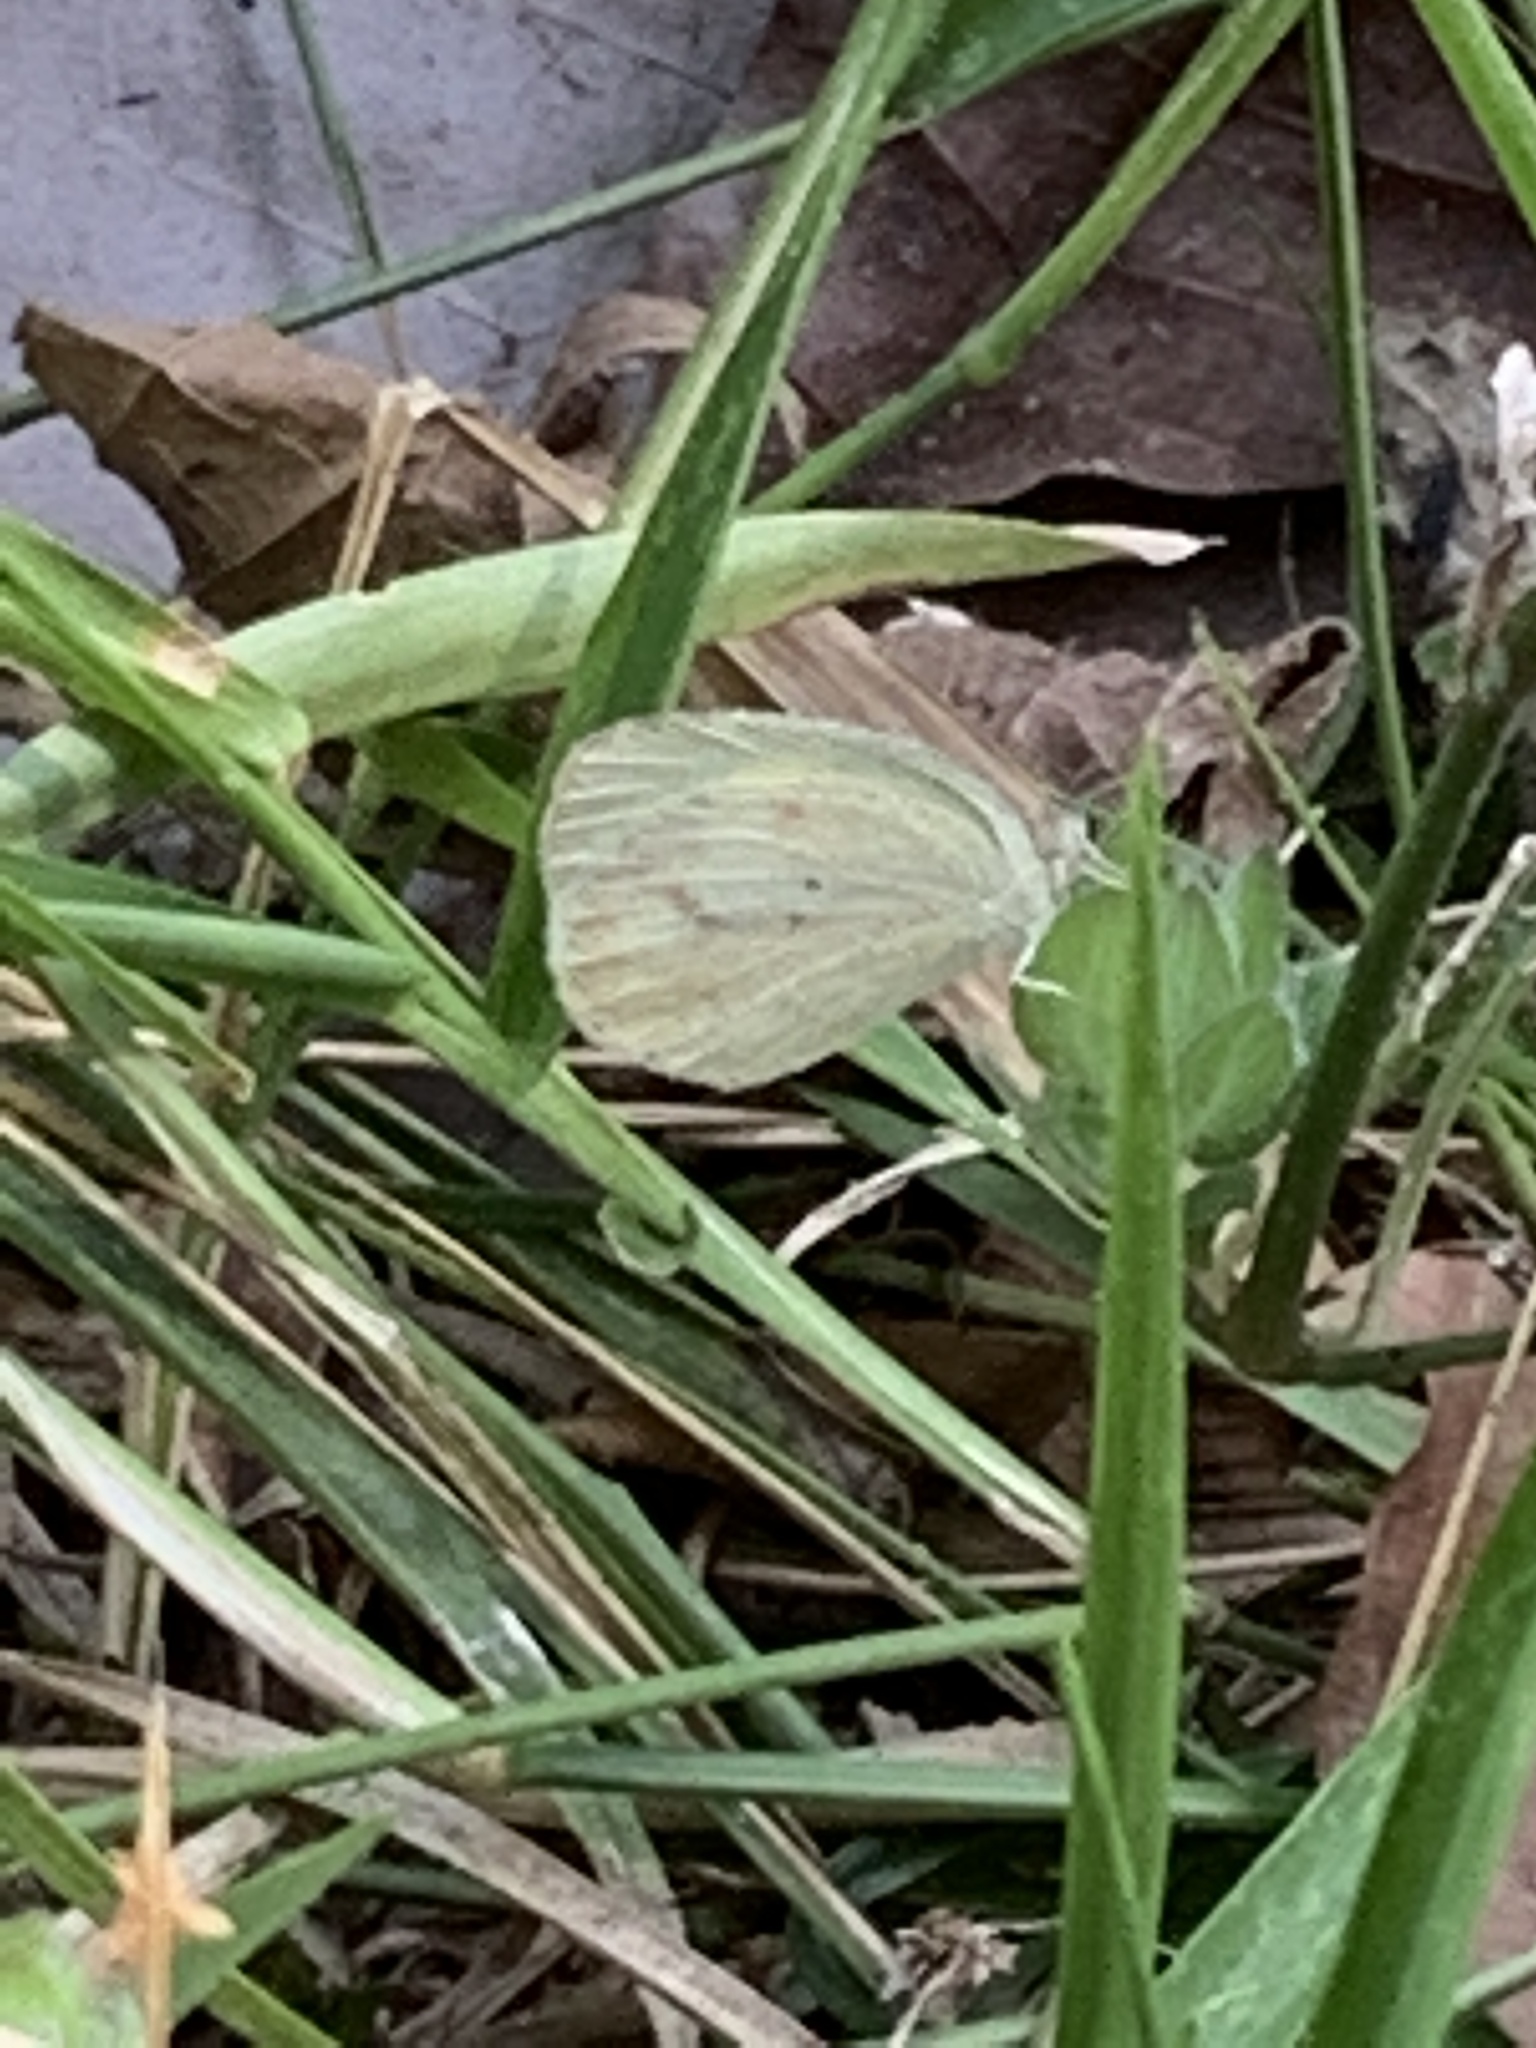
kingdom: Animalia
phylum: Arthropoda
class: Insecta
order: Lepidoptera
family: Pieridae
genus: Eurema
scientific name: Eurema daira
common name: Barred sulphur
